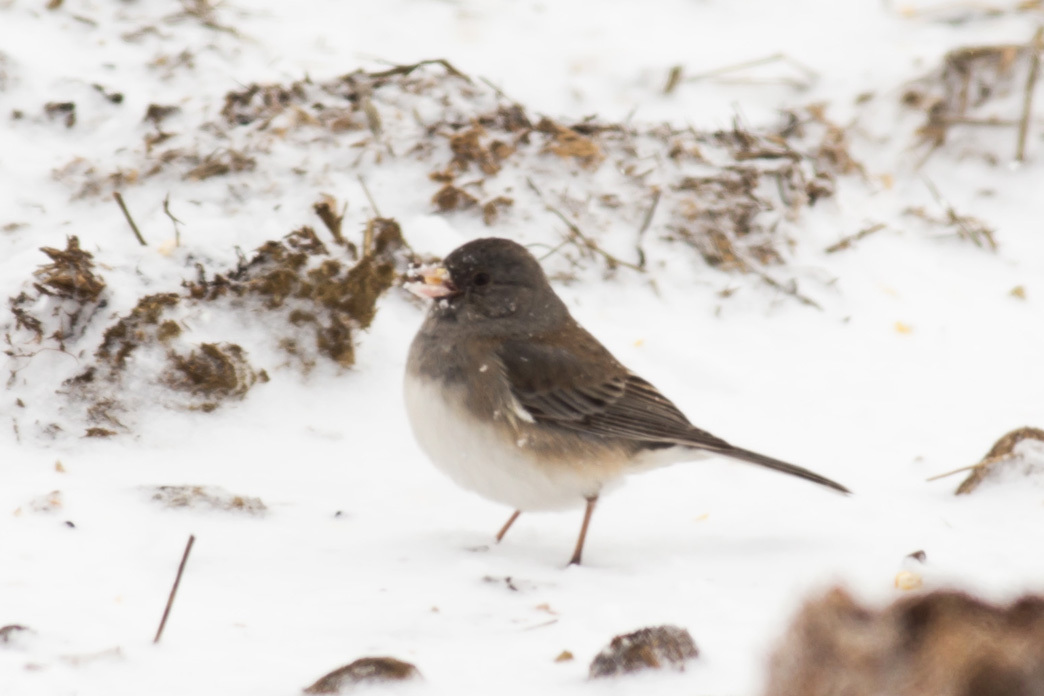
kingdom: Animalia
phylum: Chordata
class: Aves
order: Passeriformes
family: Passerellidae
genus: Junco
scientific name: Junco hyemalis
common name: Dark-eyed junco
